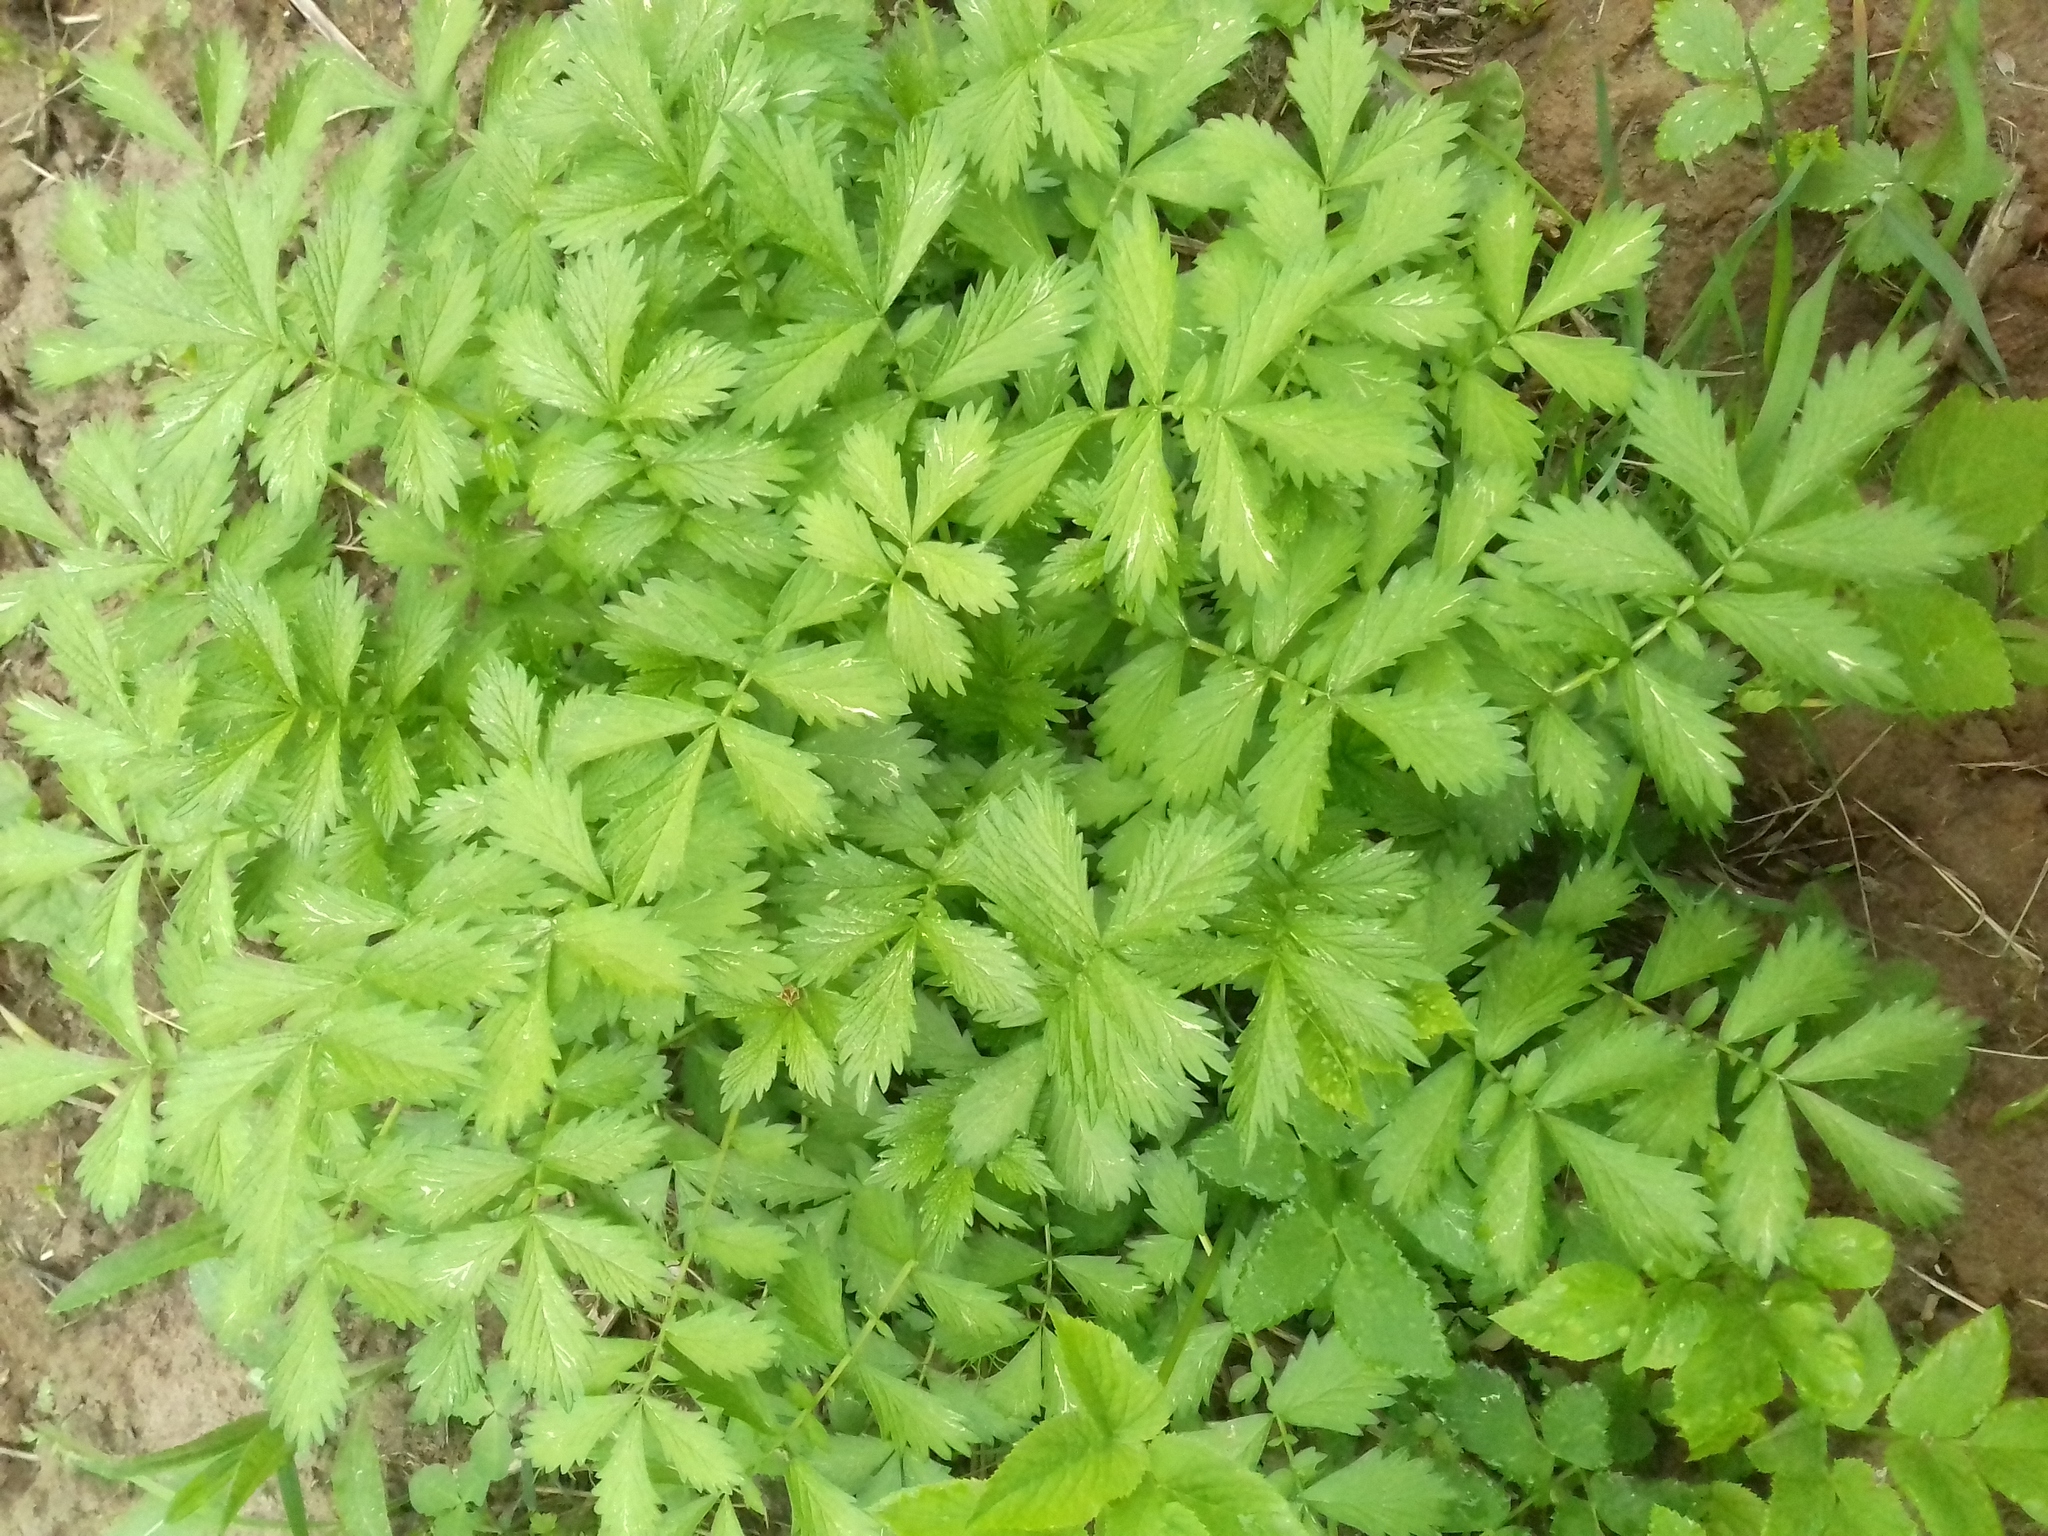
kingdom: Plantae
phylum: Tracheophyta
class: Magnoliopsida
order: Rosales
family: Rosaceae
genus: Agrimonia
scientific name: Agrimonia pilosa
